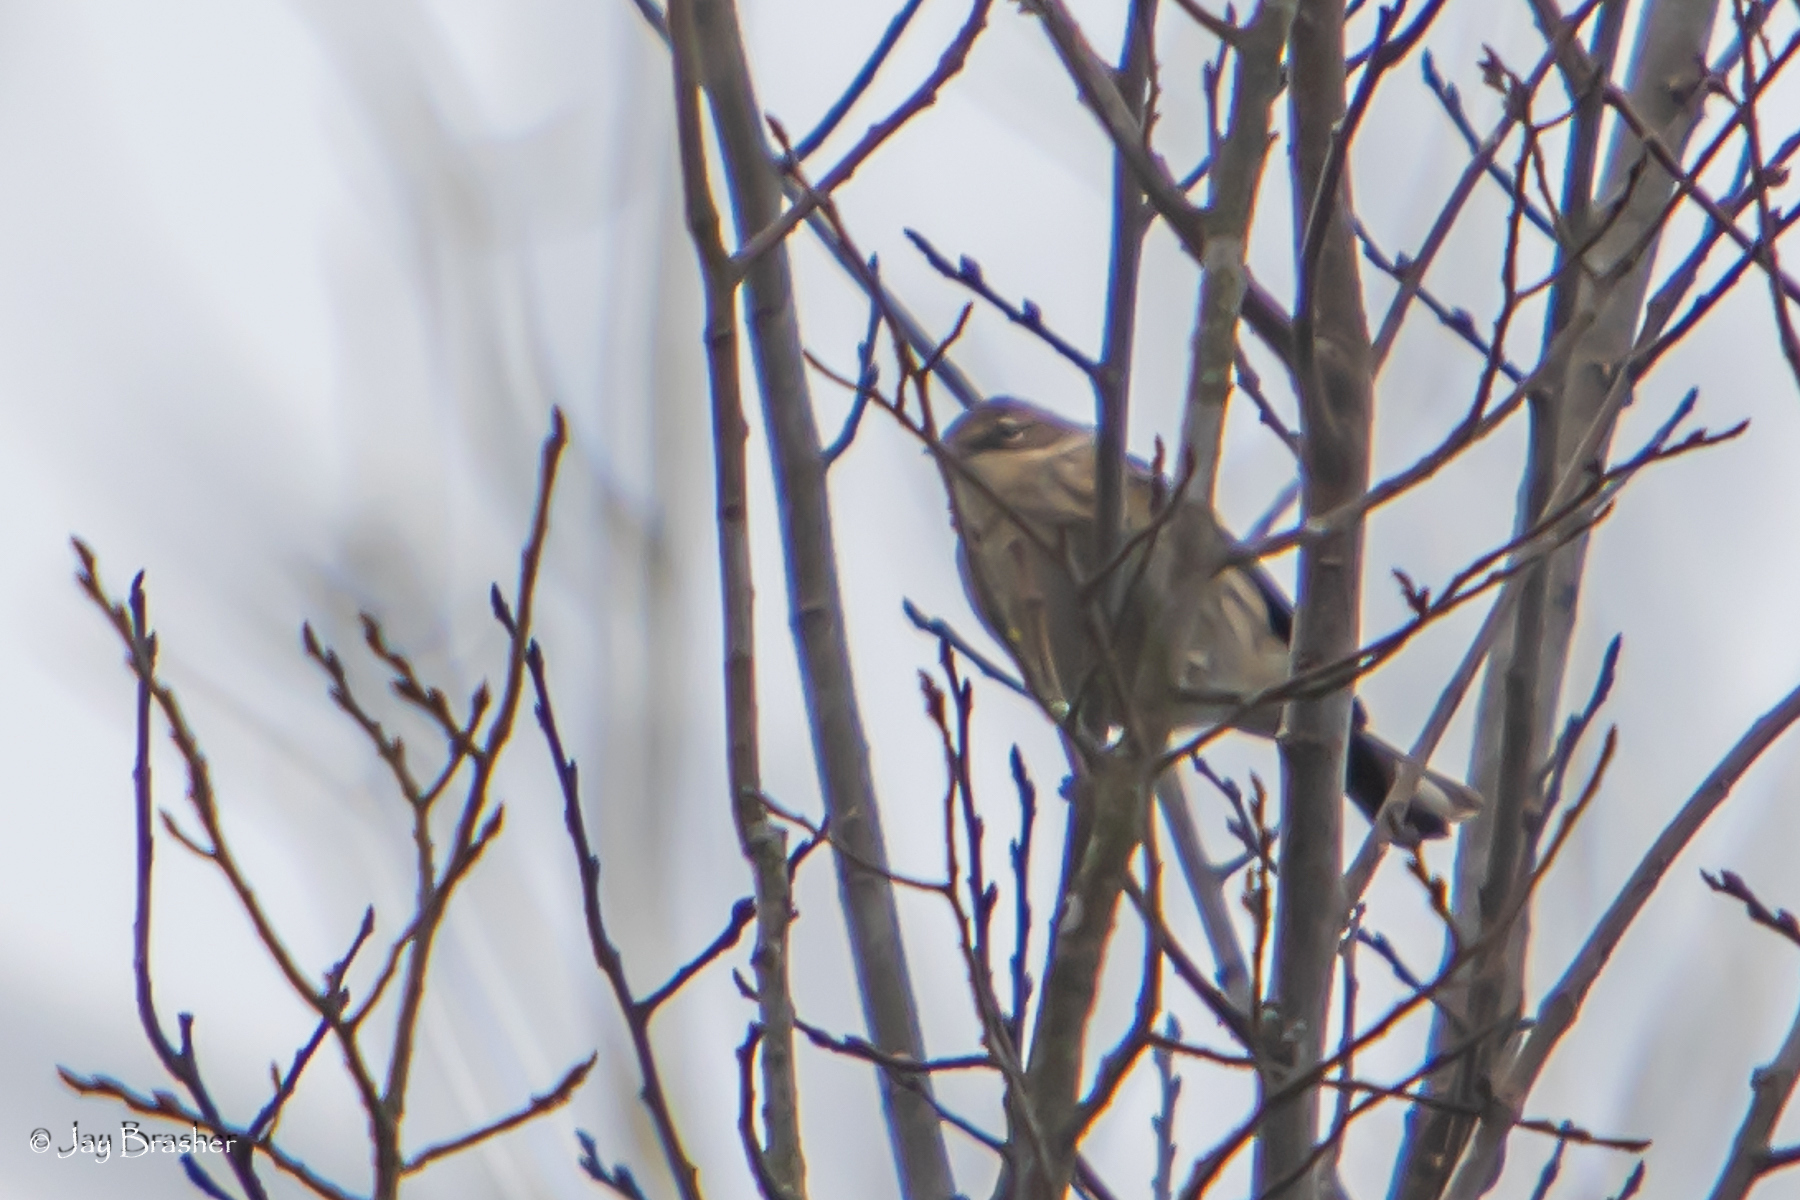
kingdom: Animalia
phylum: Chordata
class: Aves
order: Passeriformes
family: Parulidae
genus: Setophaga
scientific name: Setophaga coronata
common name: Myrtle warbler
